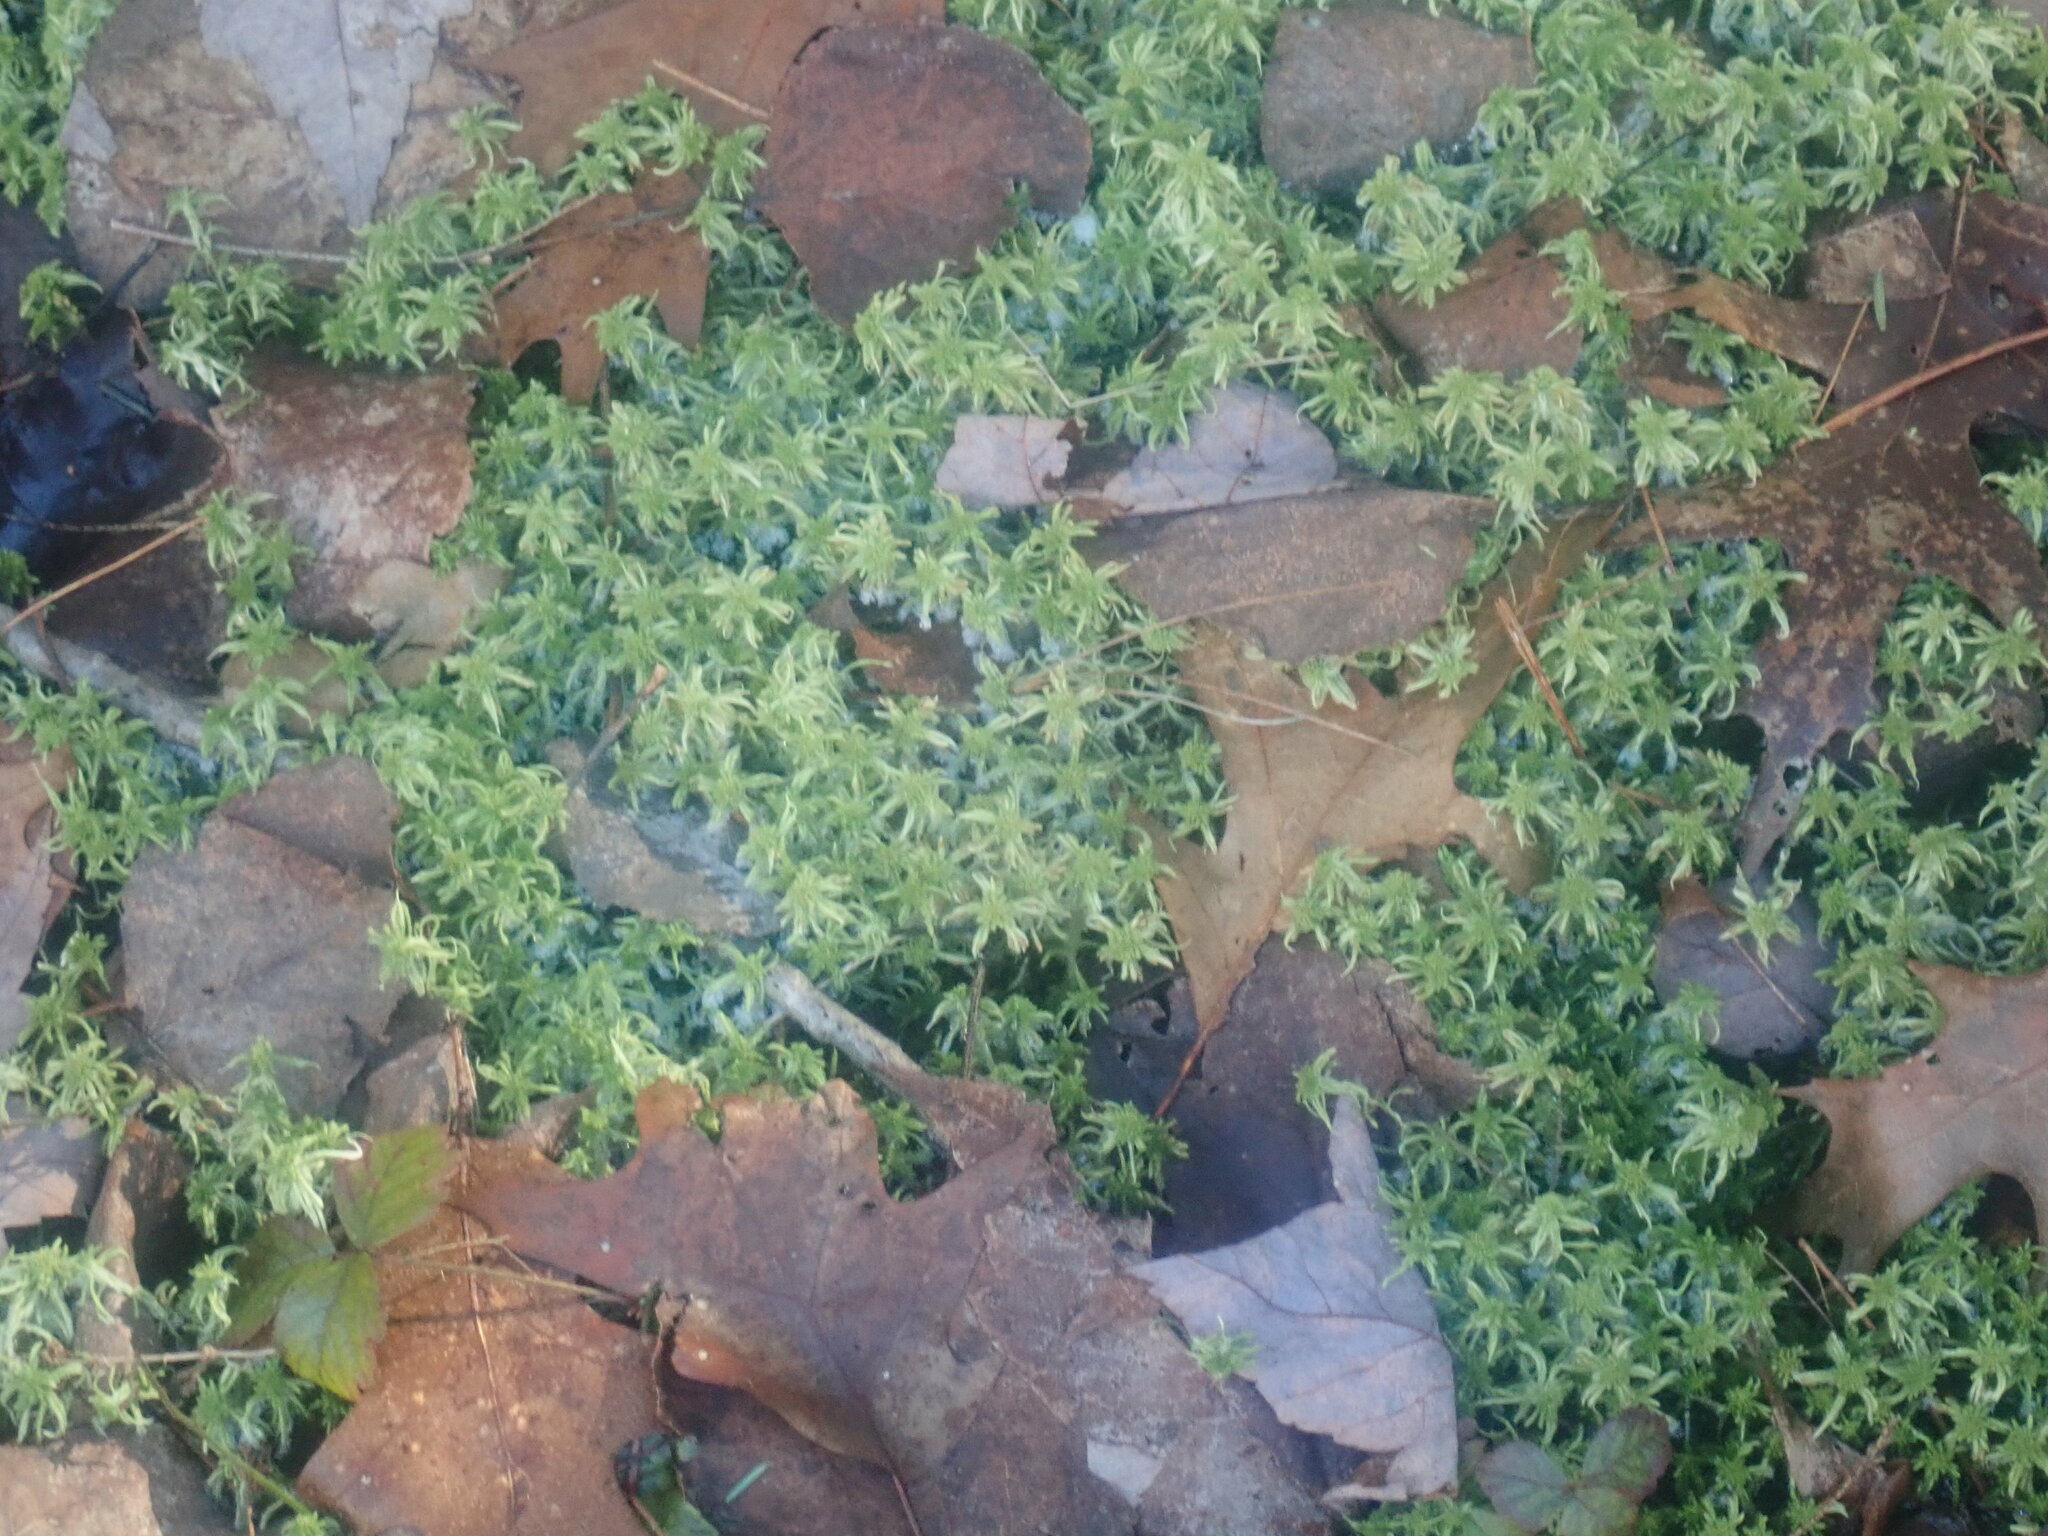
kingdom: Plantae
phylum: Bryophyta
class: Sphagnopsida
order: Sphagnales
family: Sphagnaceae
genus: Sphagnum
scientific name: Sphagnum
